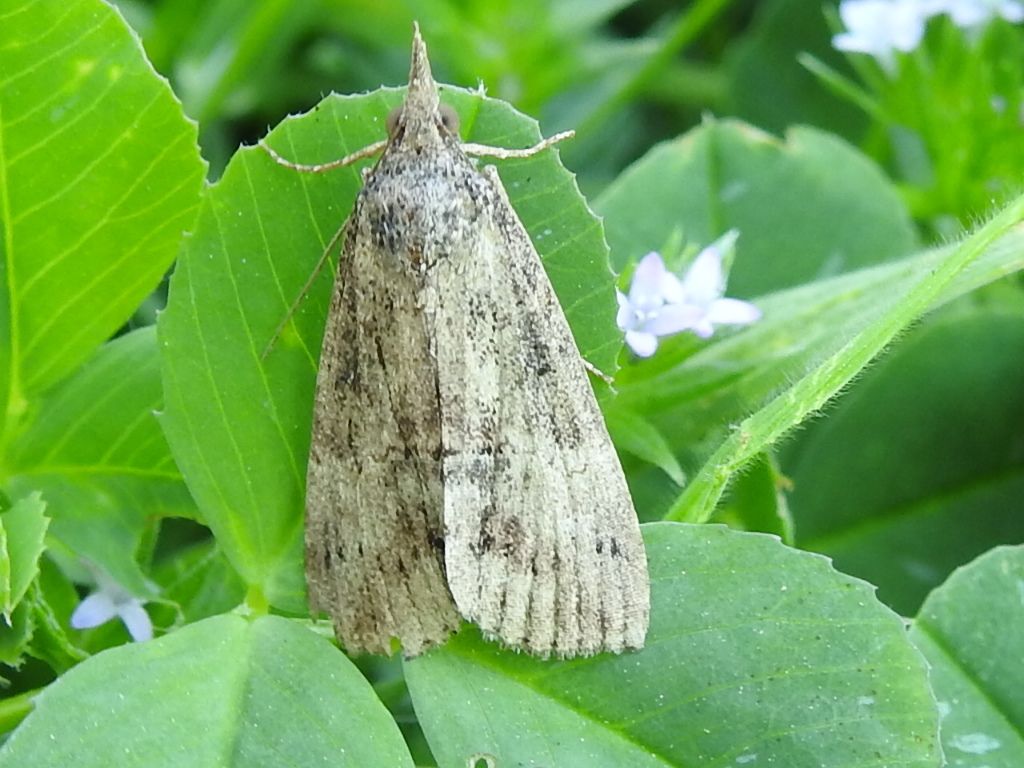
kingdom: Animalia
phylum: Arthropoda
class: Insecta
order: Lepidoptera
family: Erebidae
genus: Hypena
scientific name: Hypena scabra
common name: Green cloverworm
